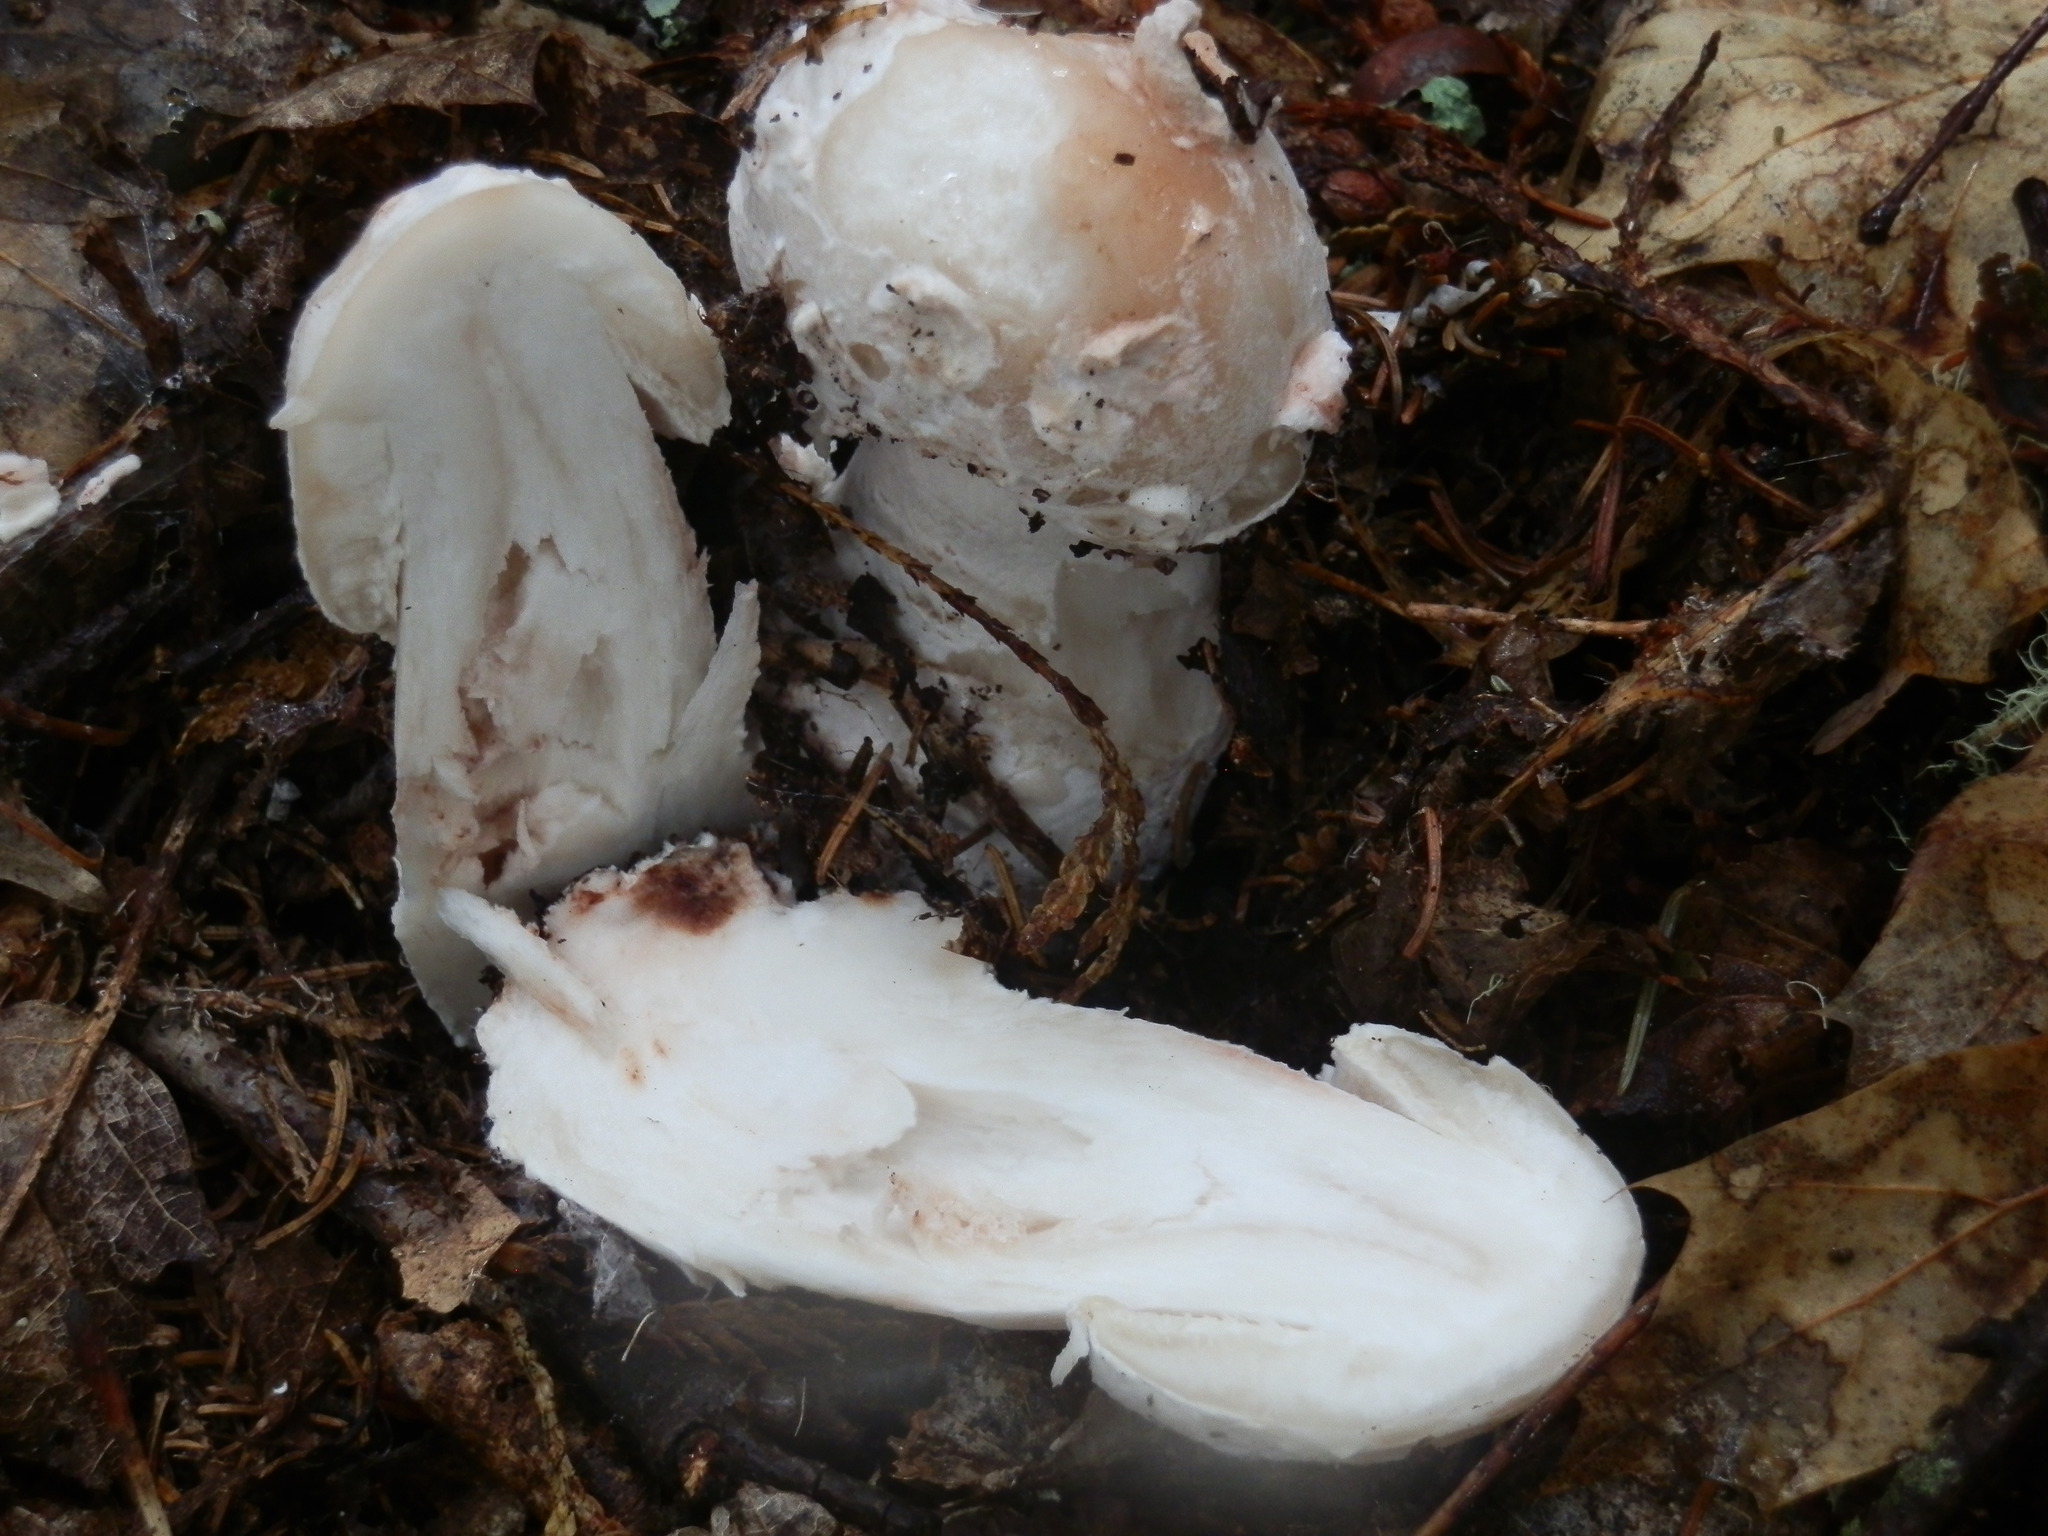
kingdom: Fungi
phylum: Ascomycota
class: Sordariomycetes
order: Hypocreales
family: Hypocreaceae
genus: Hypomyces
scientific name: Hypomyces hyalinus
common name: Amanita mold
